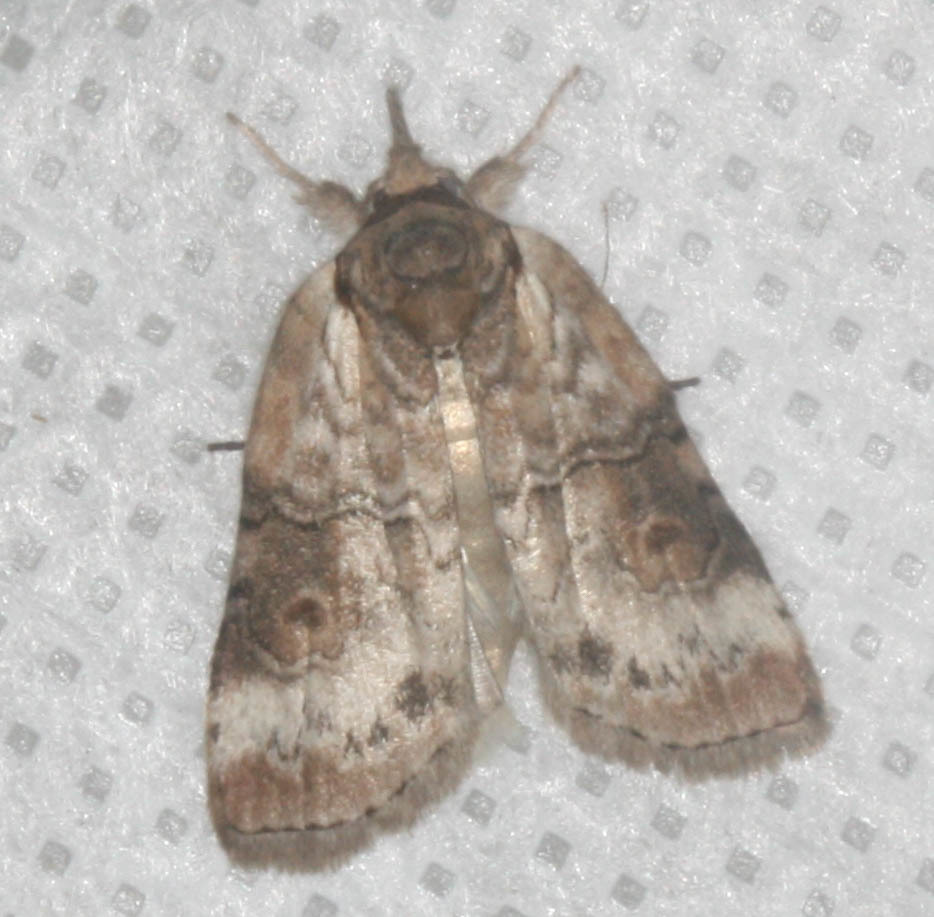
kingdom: Animalia
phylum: Arthropoda
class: Insecta
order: Lepidoptera
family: Nolidae
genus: Nycteola
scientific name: Nycteola cinereana
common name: Grey midget moth
